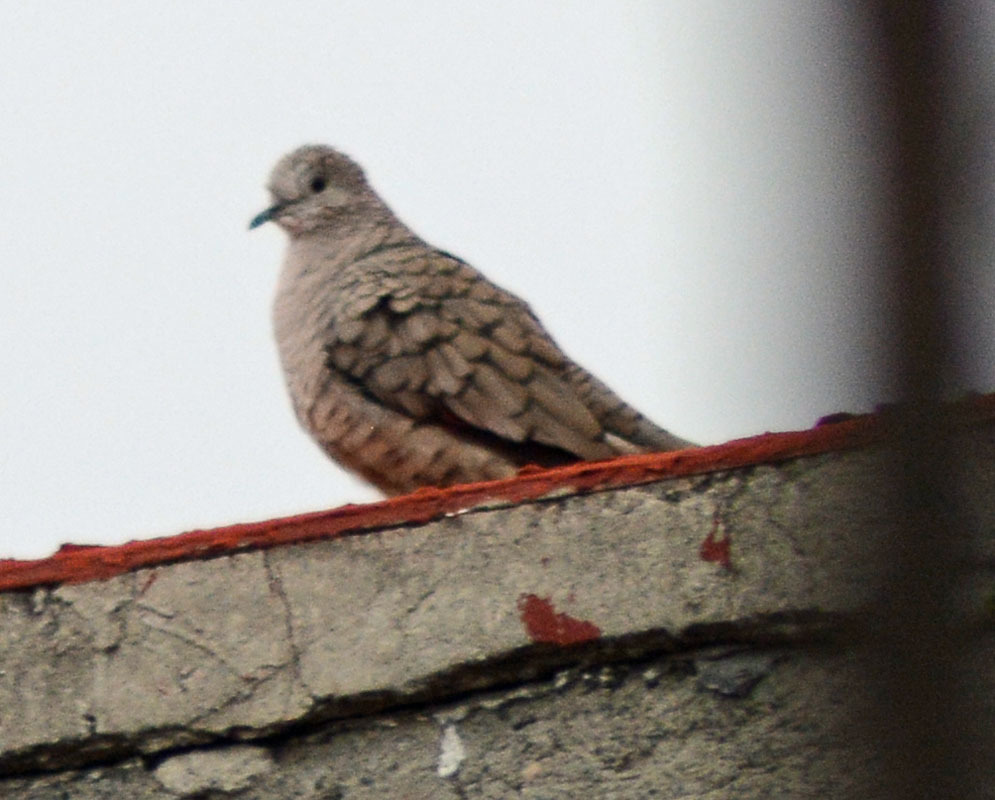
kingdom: Animalia
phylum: Chordata
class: Aves
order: Columbiformes
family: Columbidae
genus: Columbina
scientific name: Columbina inca
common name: Inca dove
